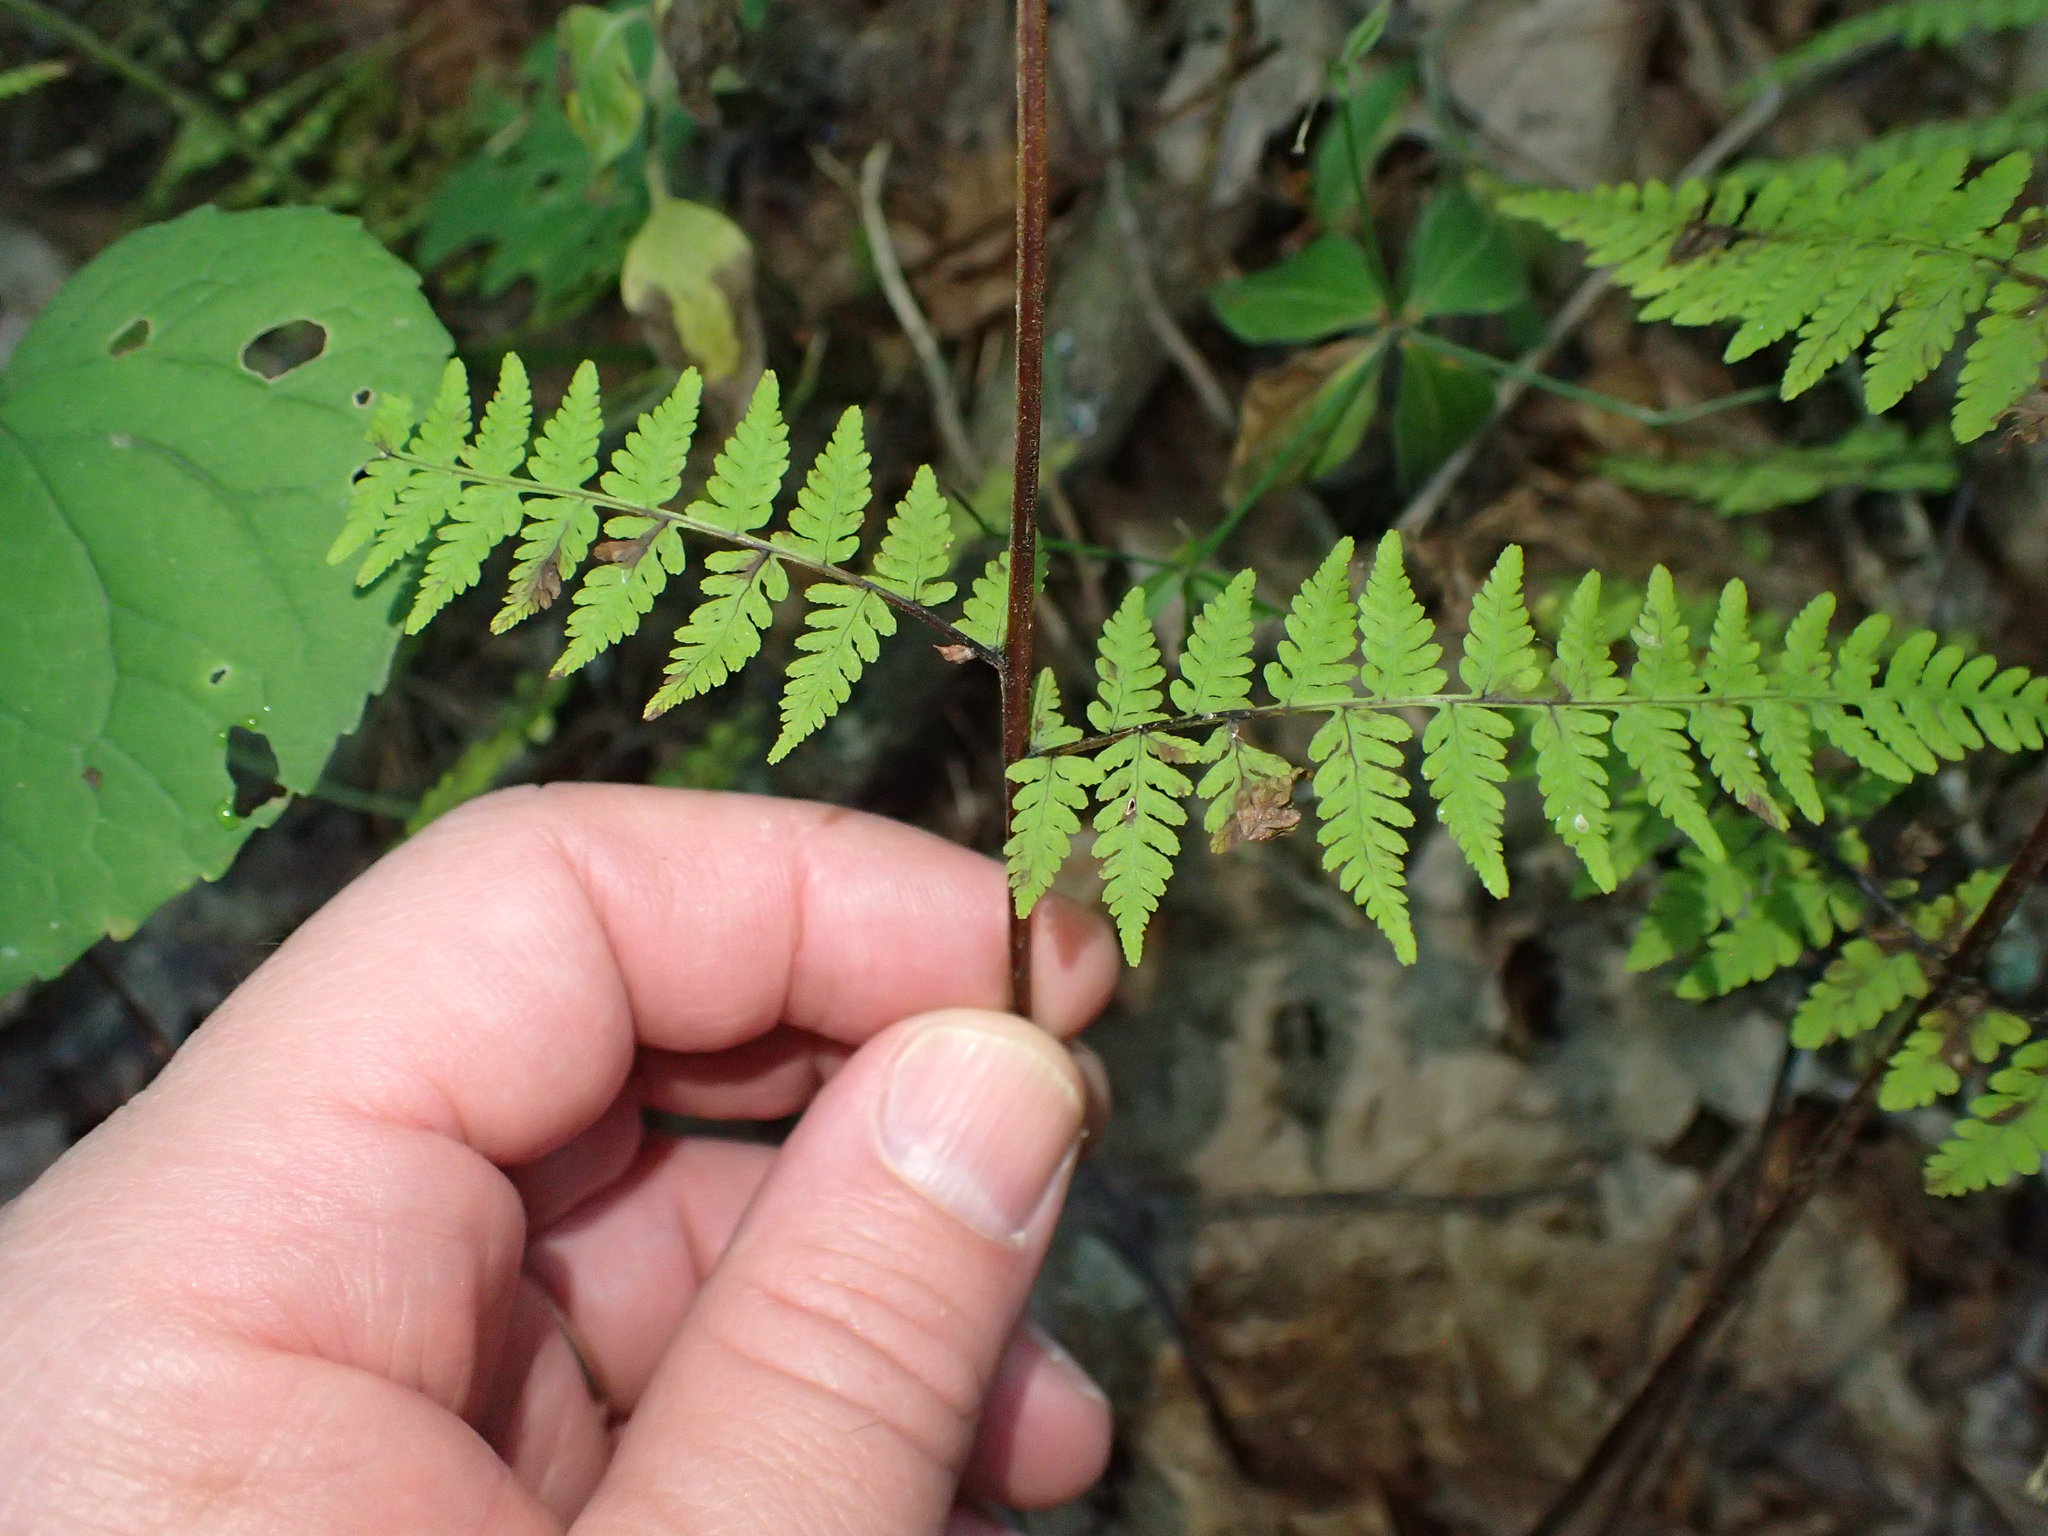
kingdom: Plantae
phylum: Tracheophyta
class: Polypodiopsida
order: Polypodiales
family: Cystopteridaceae
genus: Cystopteris
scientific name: Cystopteris bulbifera
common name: Bulblet bladder fern
